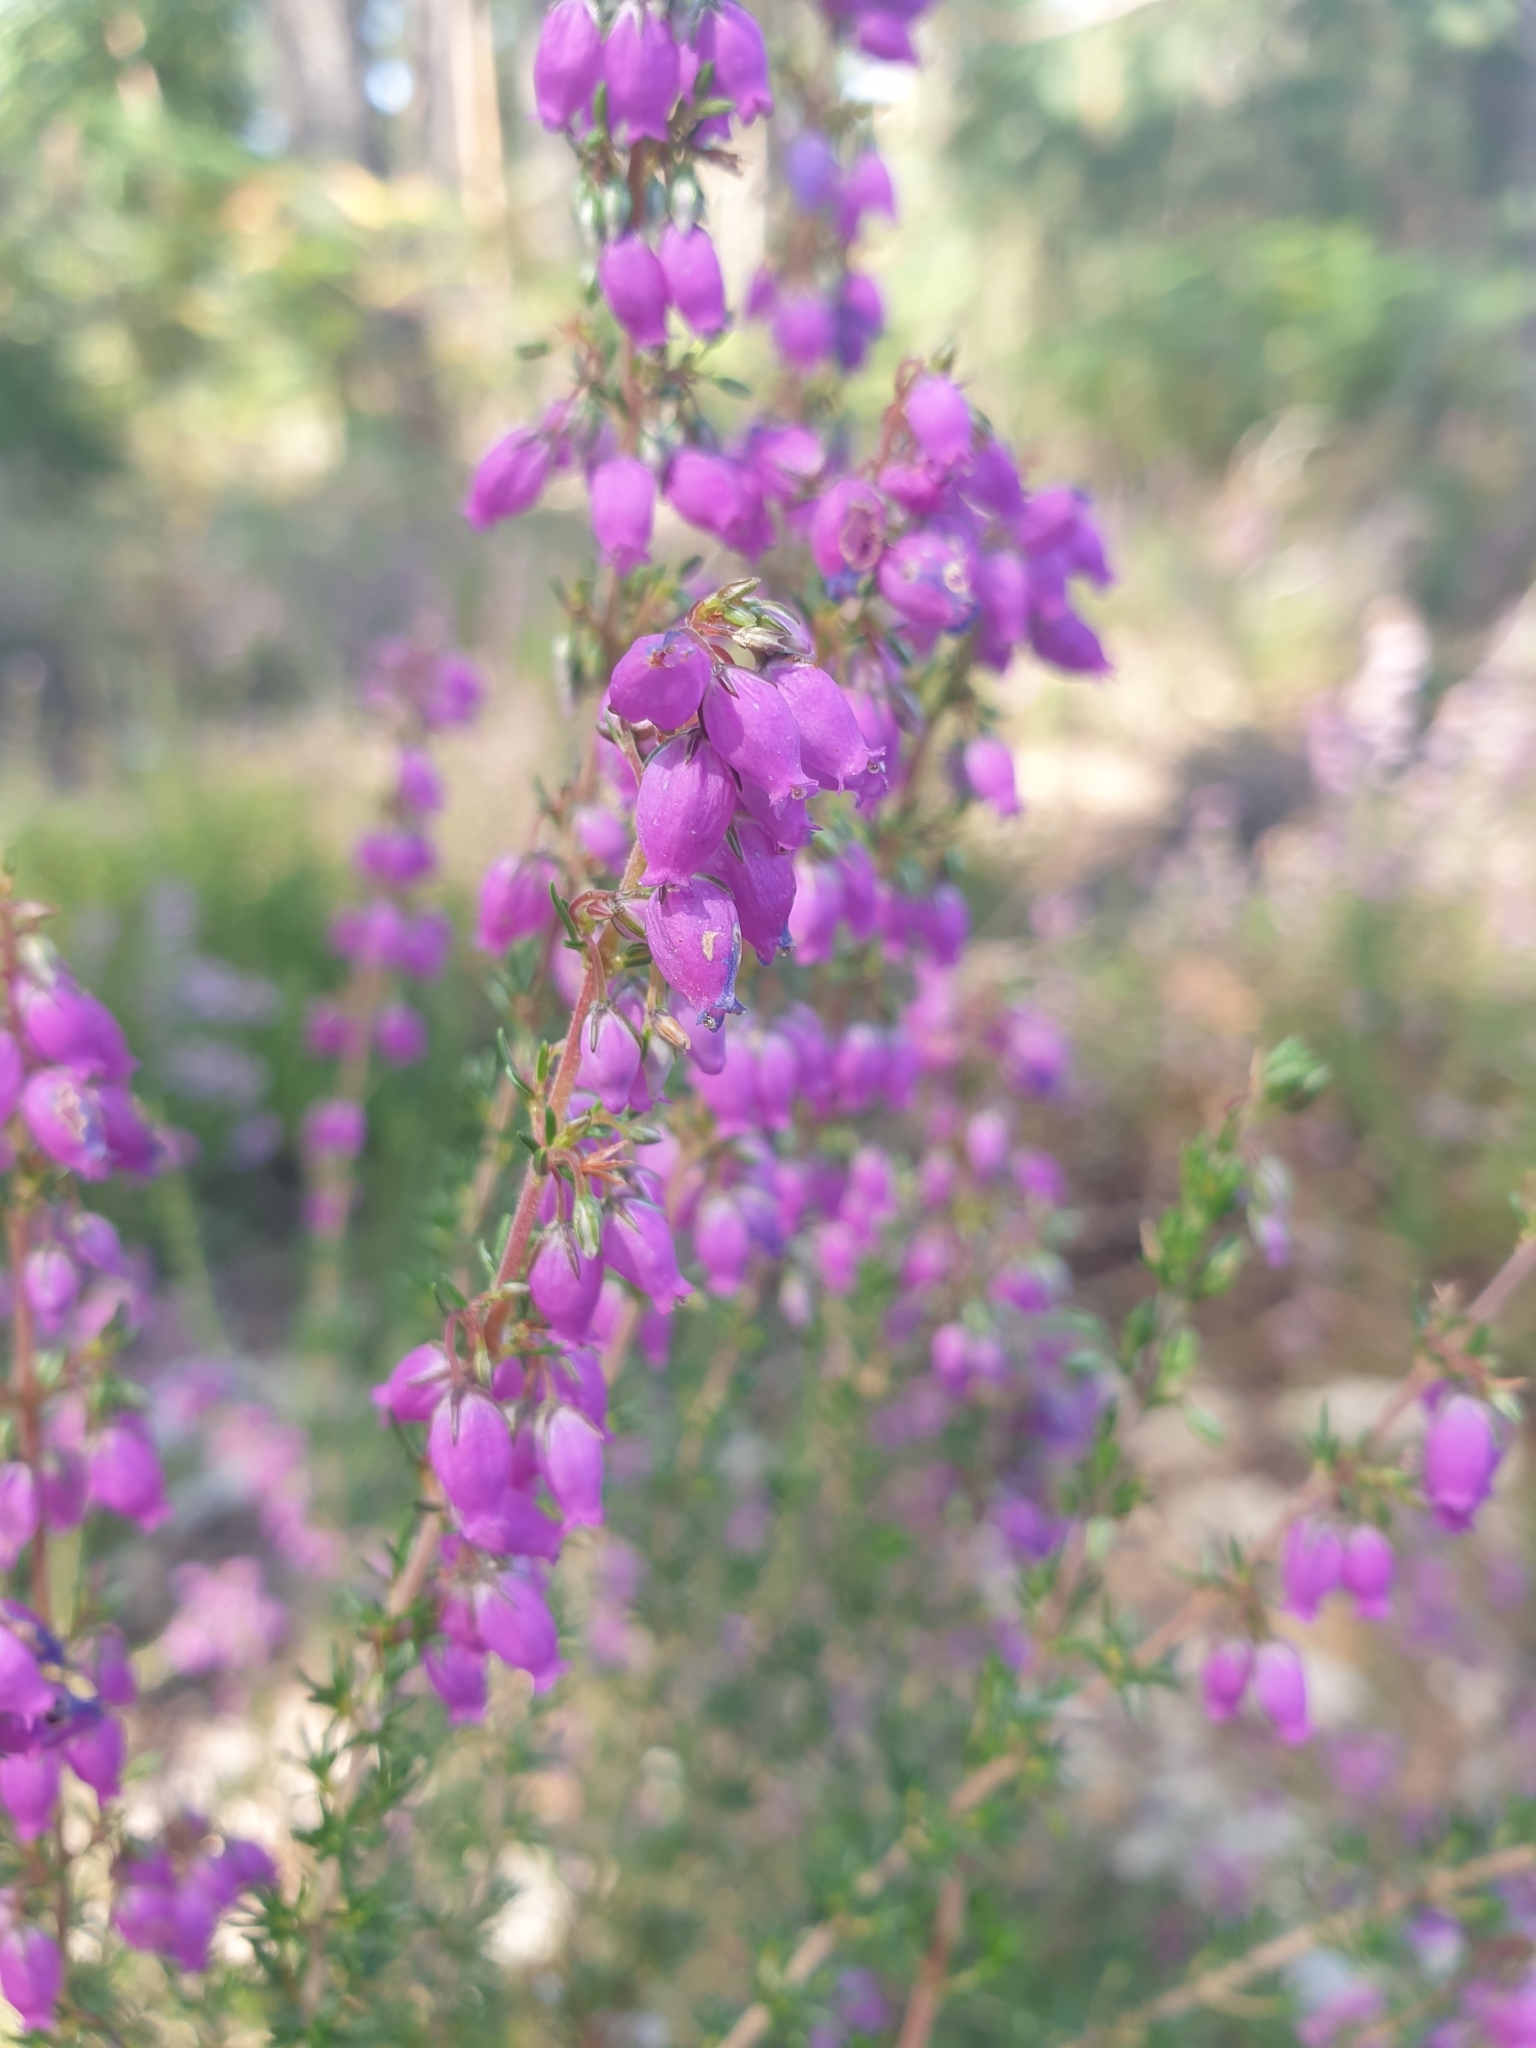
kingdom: Plantae
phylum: Tracheophyta
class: Magnoliopsida
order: Ericales
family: Ericaceae
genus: Erica
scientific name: Erica cinerea
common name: Bell heather
